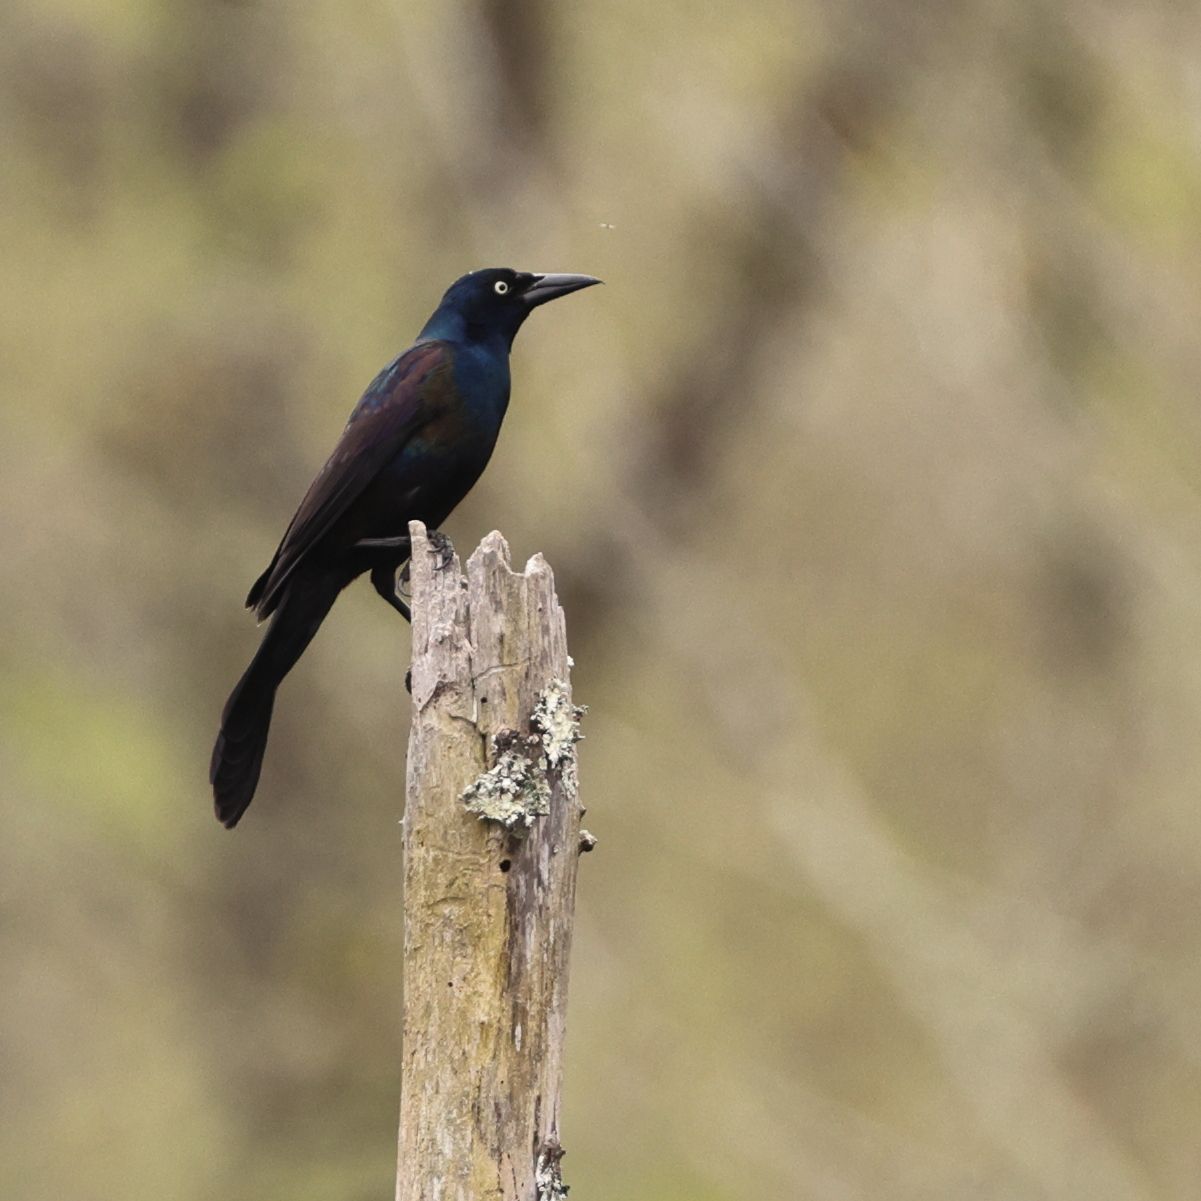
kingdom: Animalia
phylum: Chordata
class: Aves
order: Passeriformes
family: Icteridae
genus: Quiscalus
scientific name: Quiscalus quiscula
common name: Common grackle
